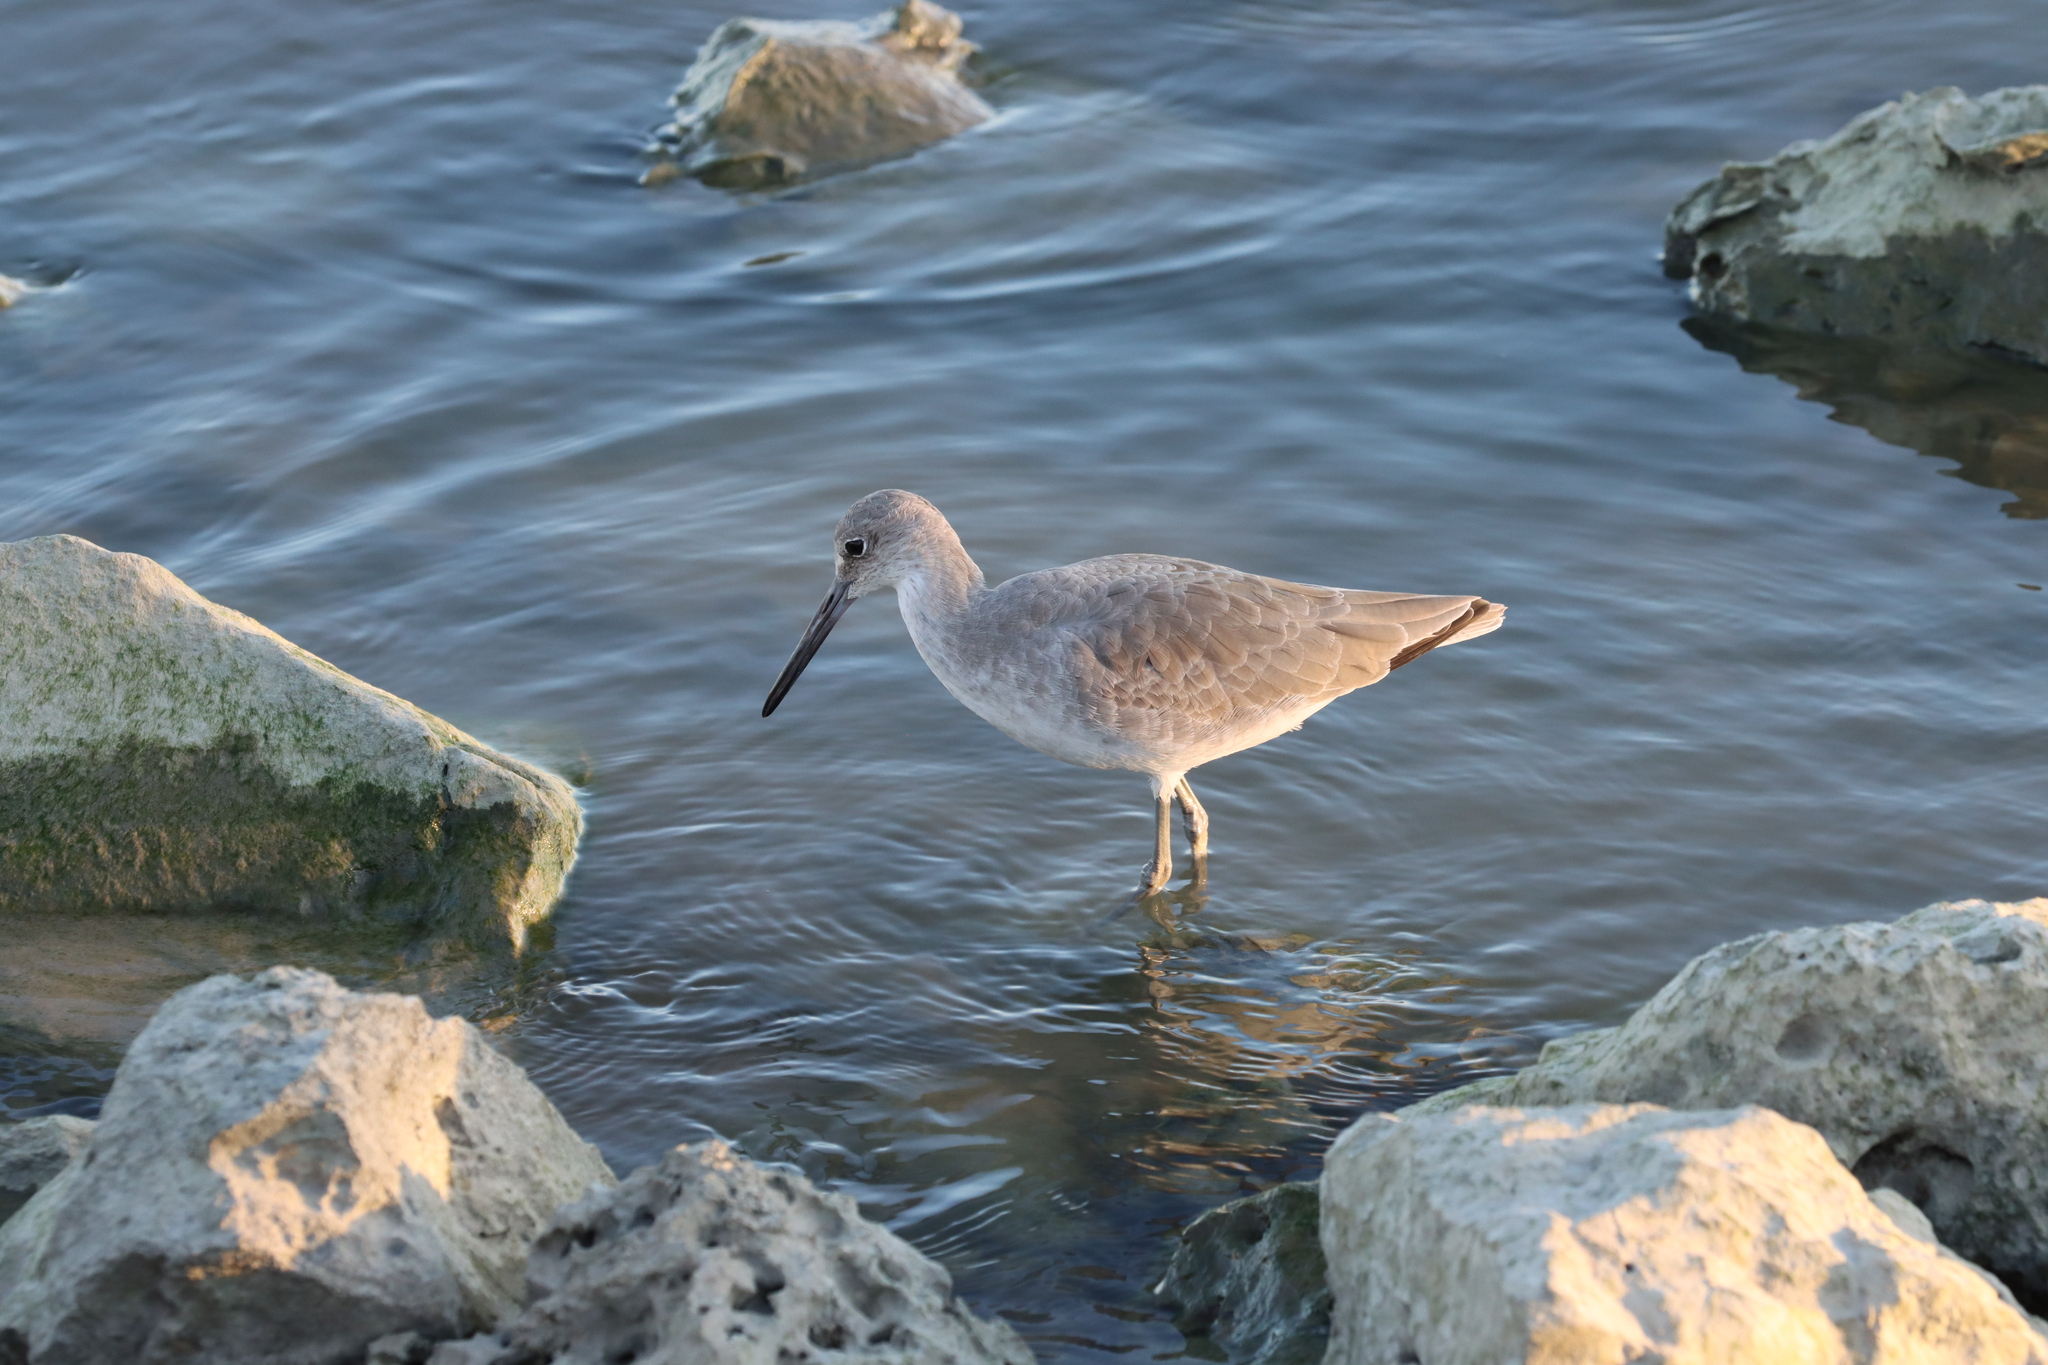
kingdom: Animalia
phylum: Chordata
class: Aves
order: Charadriiformes
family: Scolopacidae
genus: Tringa
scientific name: Tringa semipalmata
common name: Willet
